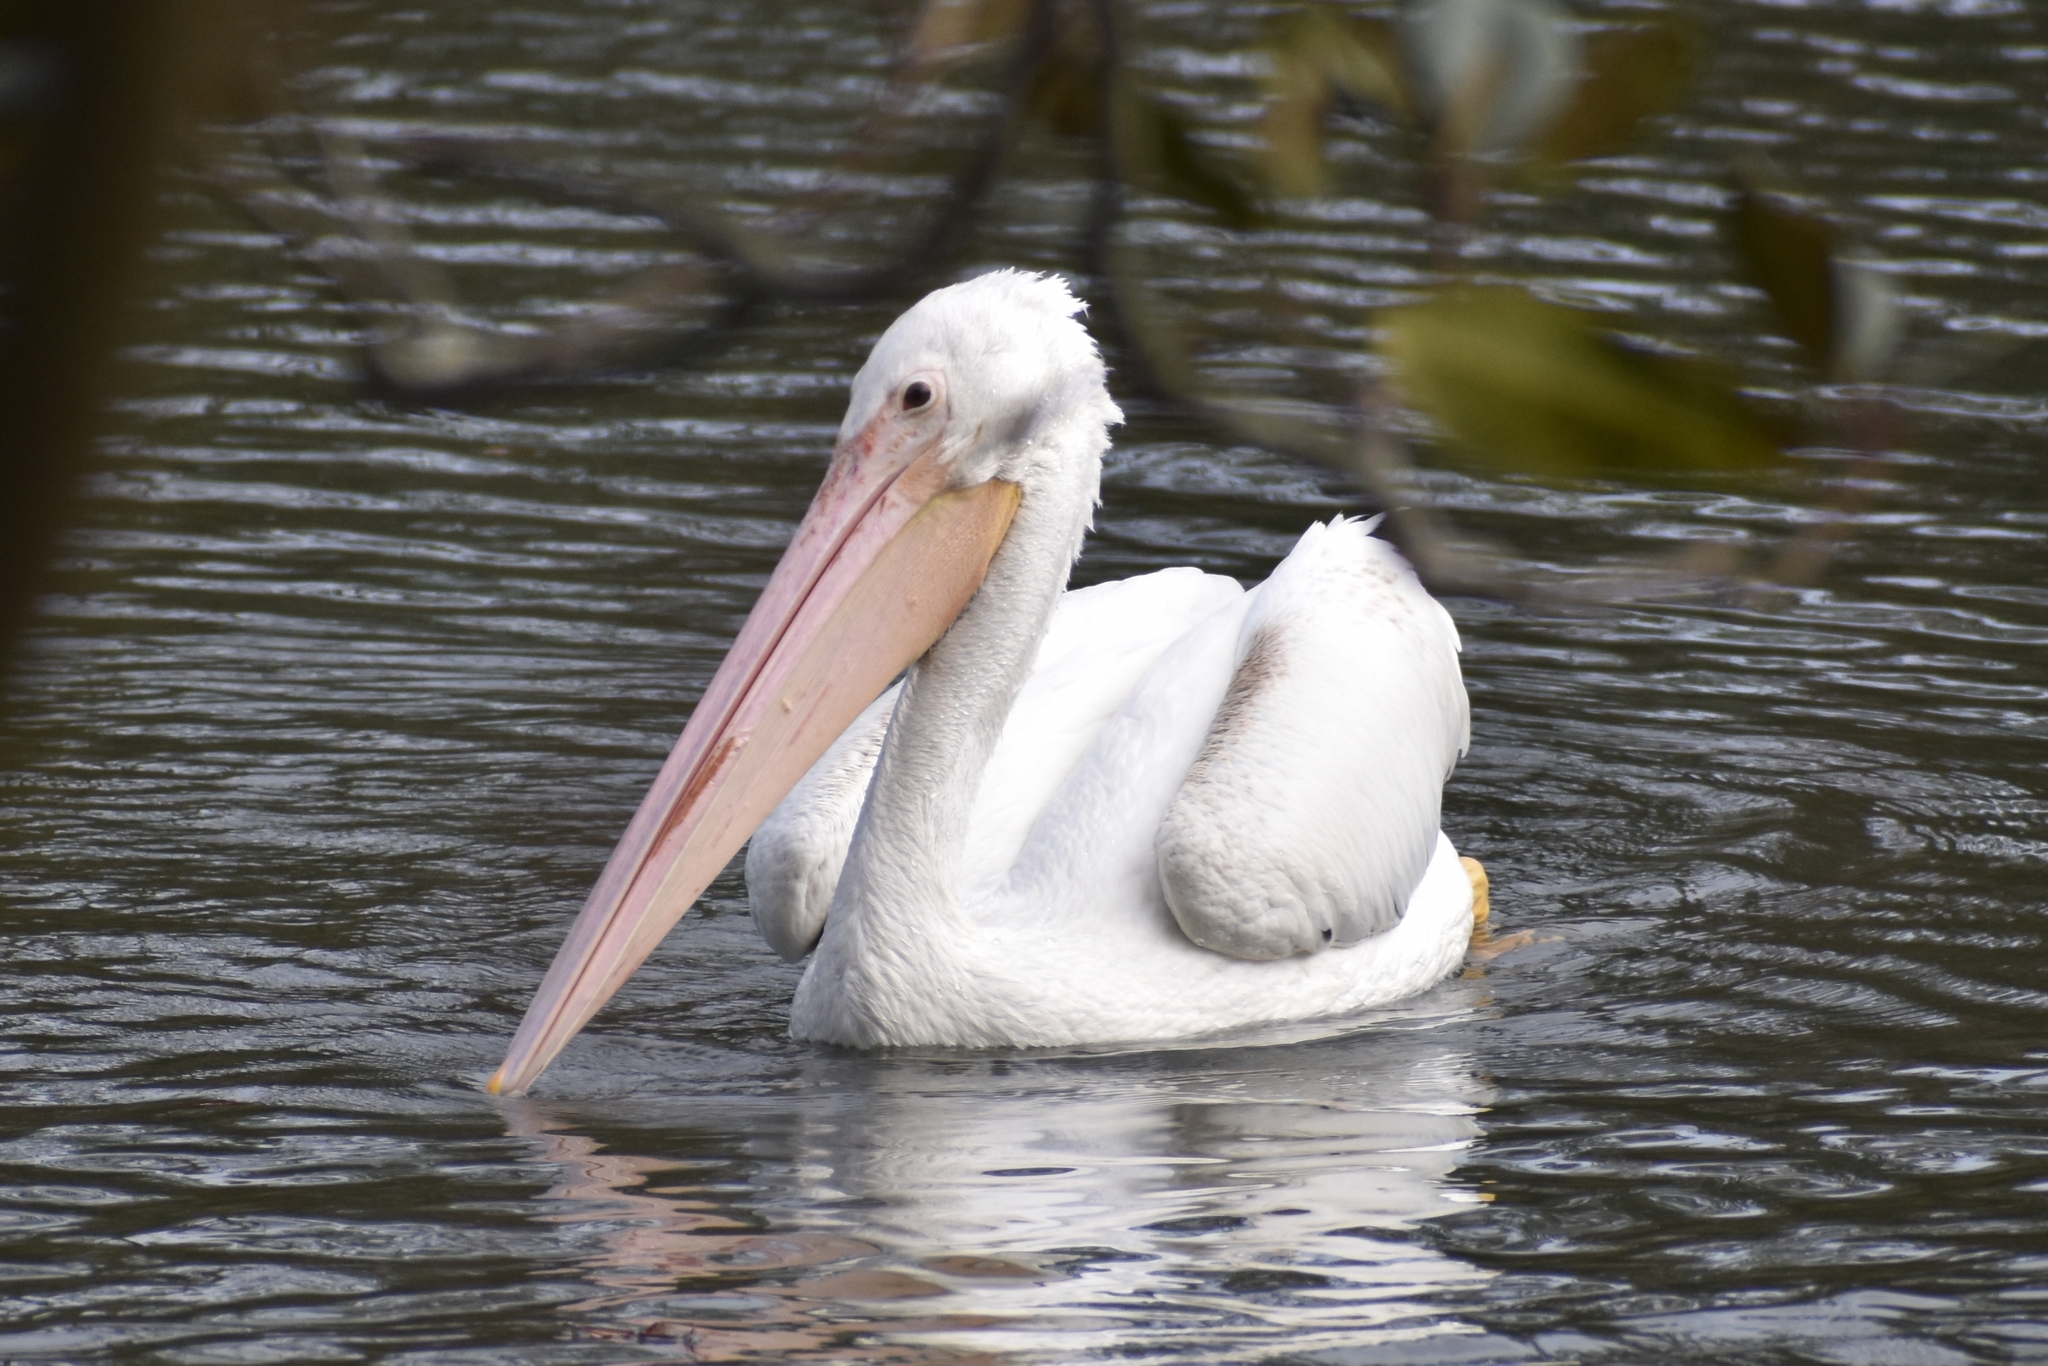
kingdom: Animalia
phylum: Chordata
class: Aves
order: Pelecaniformes
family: Pelecanidae
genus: Pelecanus
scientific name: Pelecanus erythrorhynchos
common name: American white pelican
